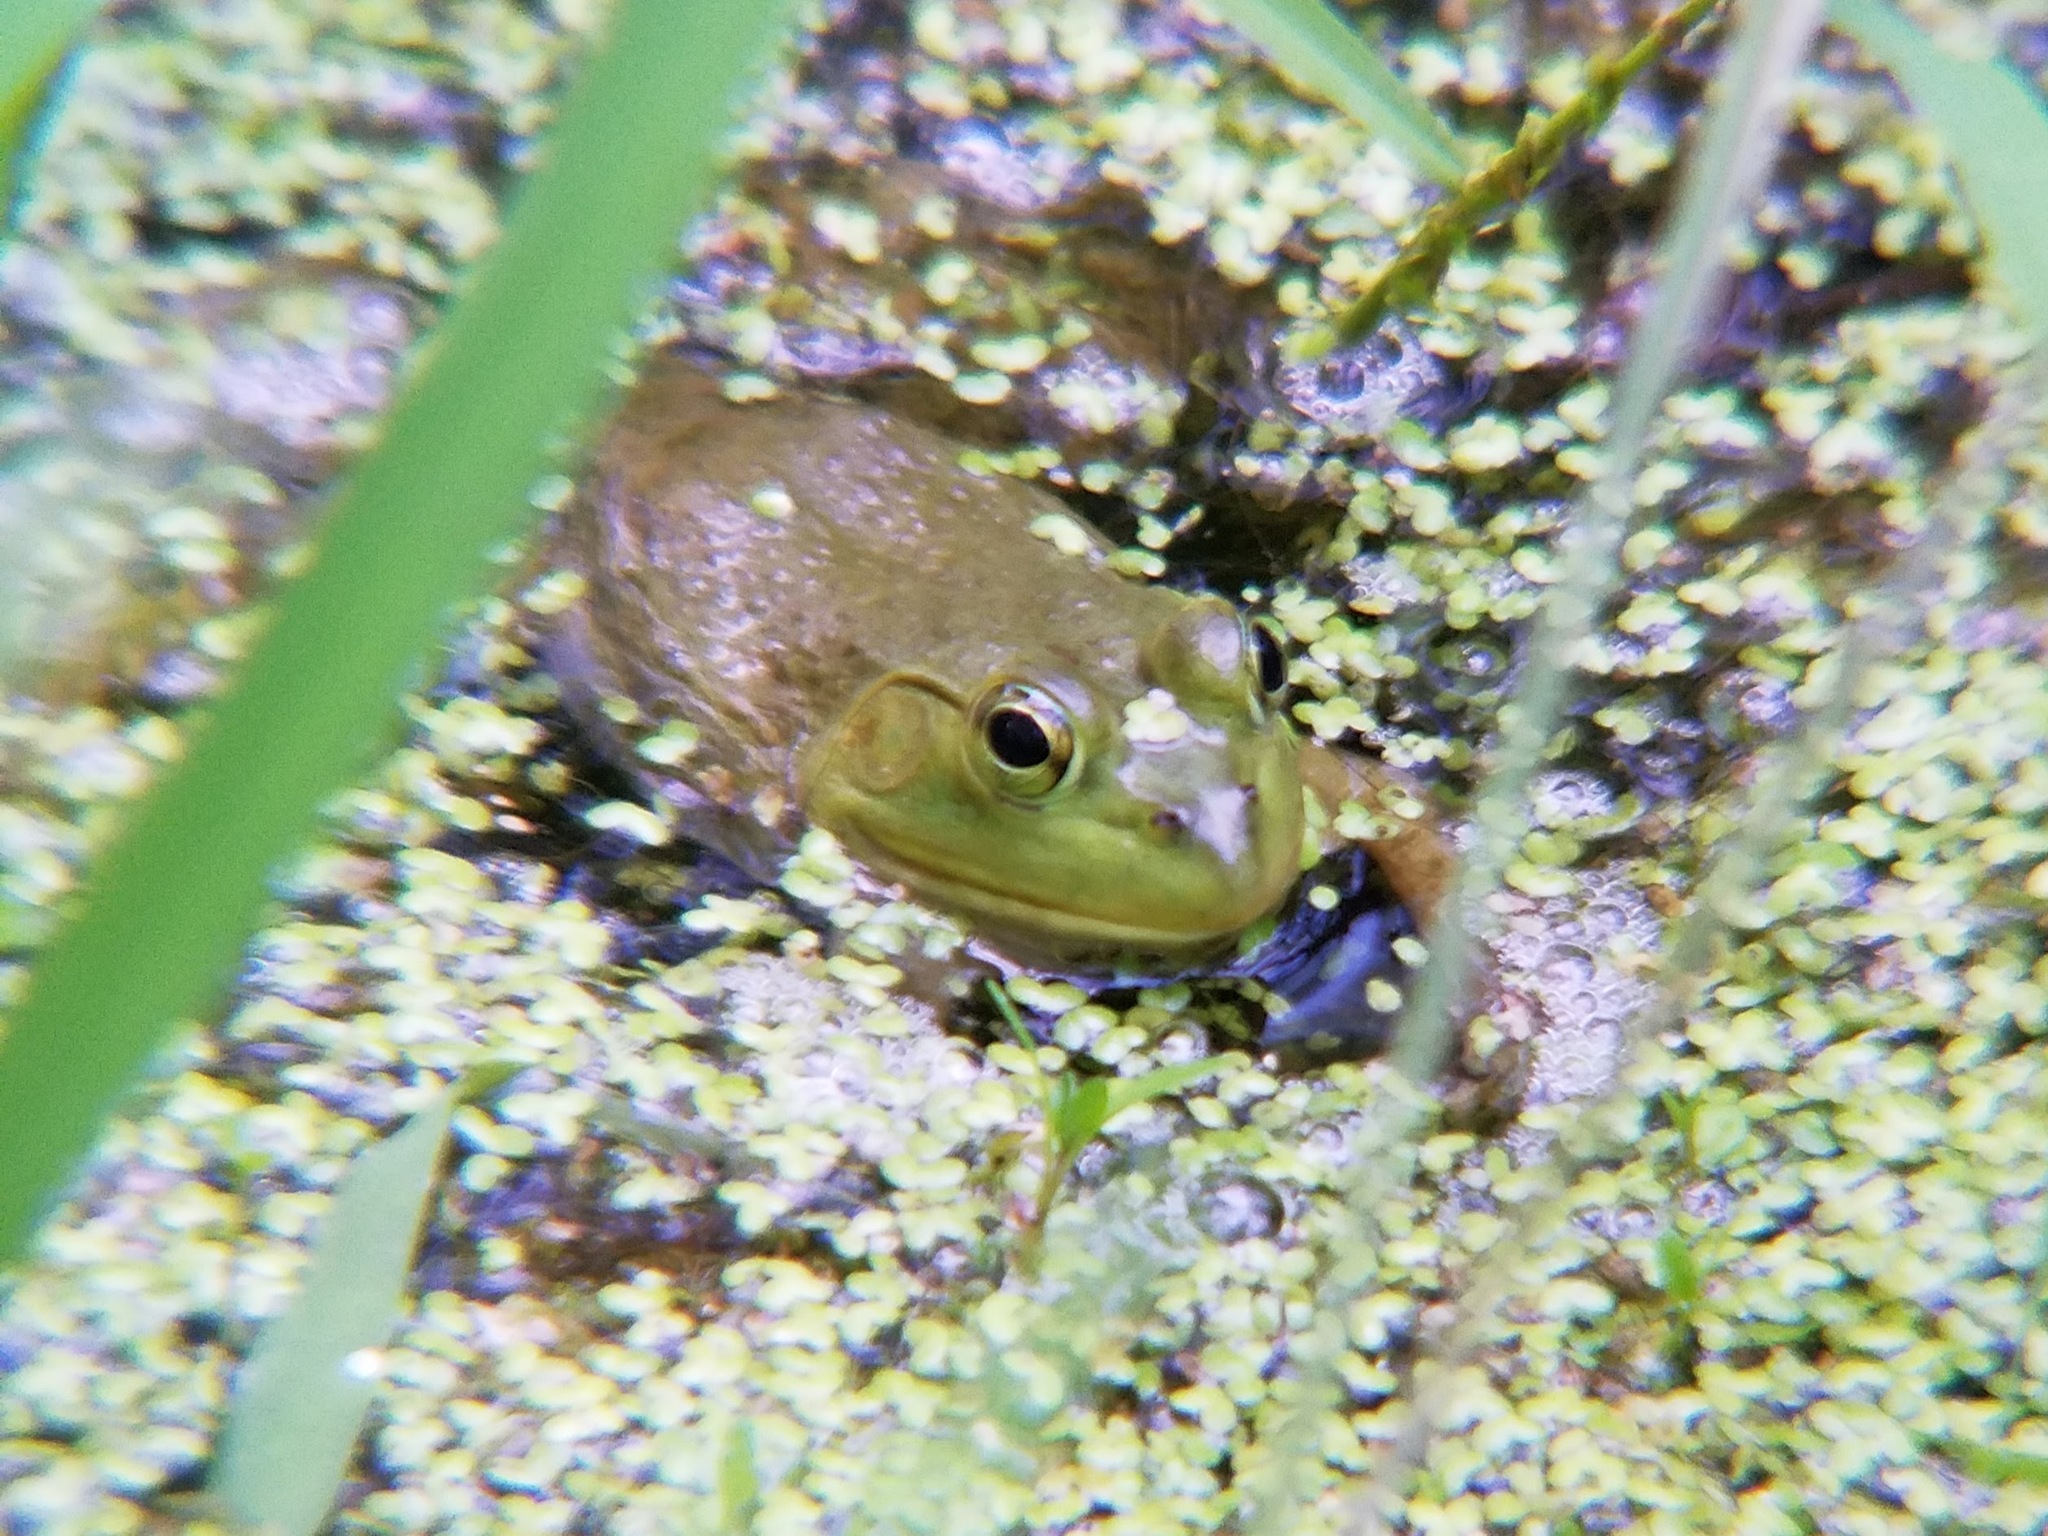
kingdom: Animalia
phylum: Chordata
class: Amphibia
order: Anura
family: Ranidae
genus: Lithobates
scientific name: Lithobates catesbeianus
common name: American bullfrog
